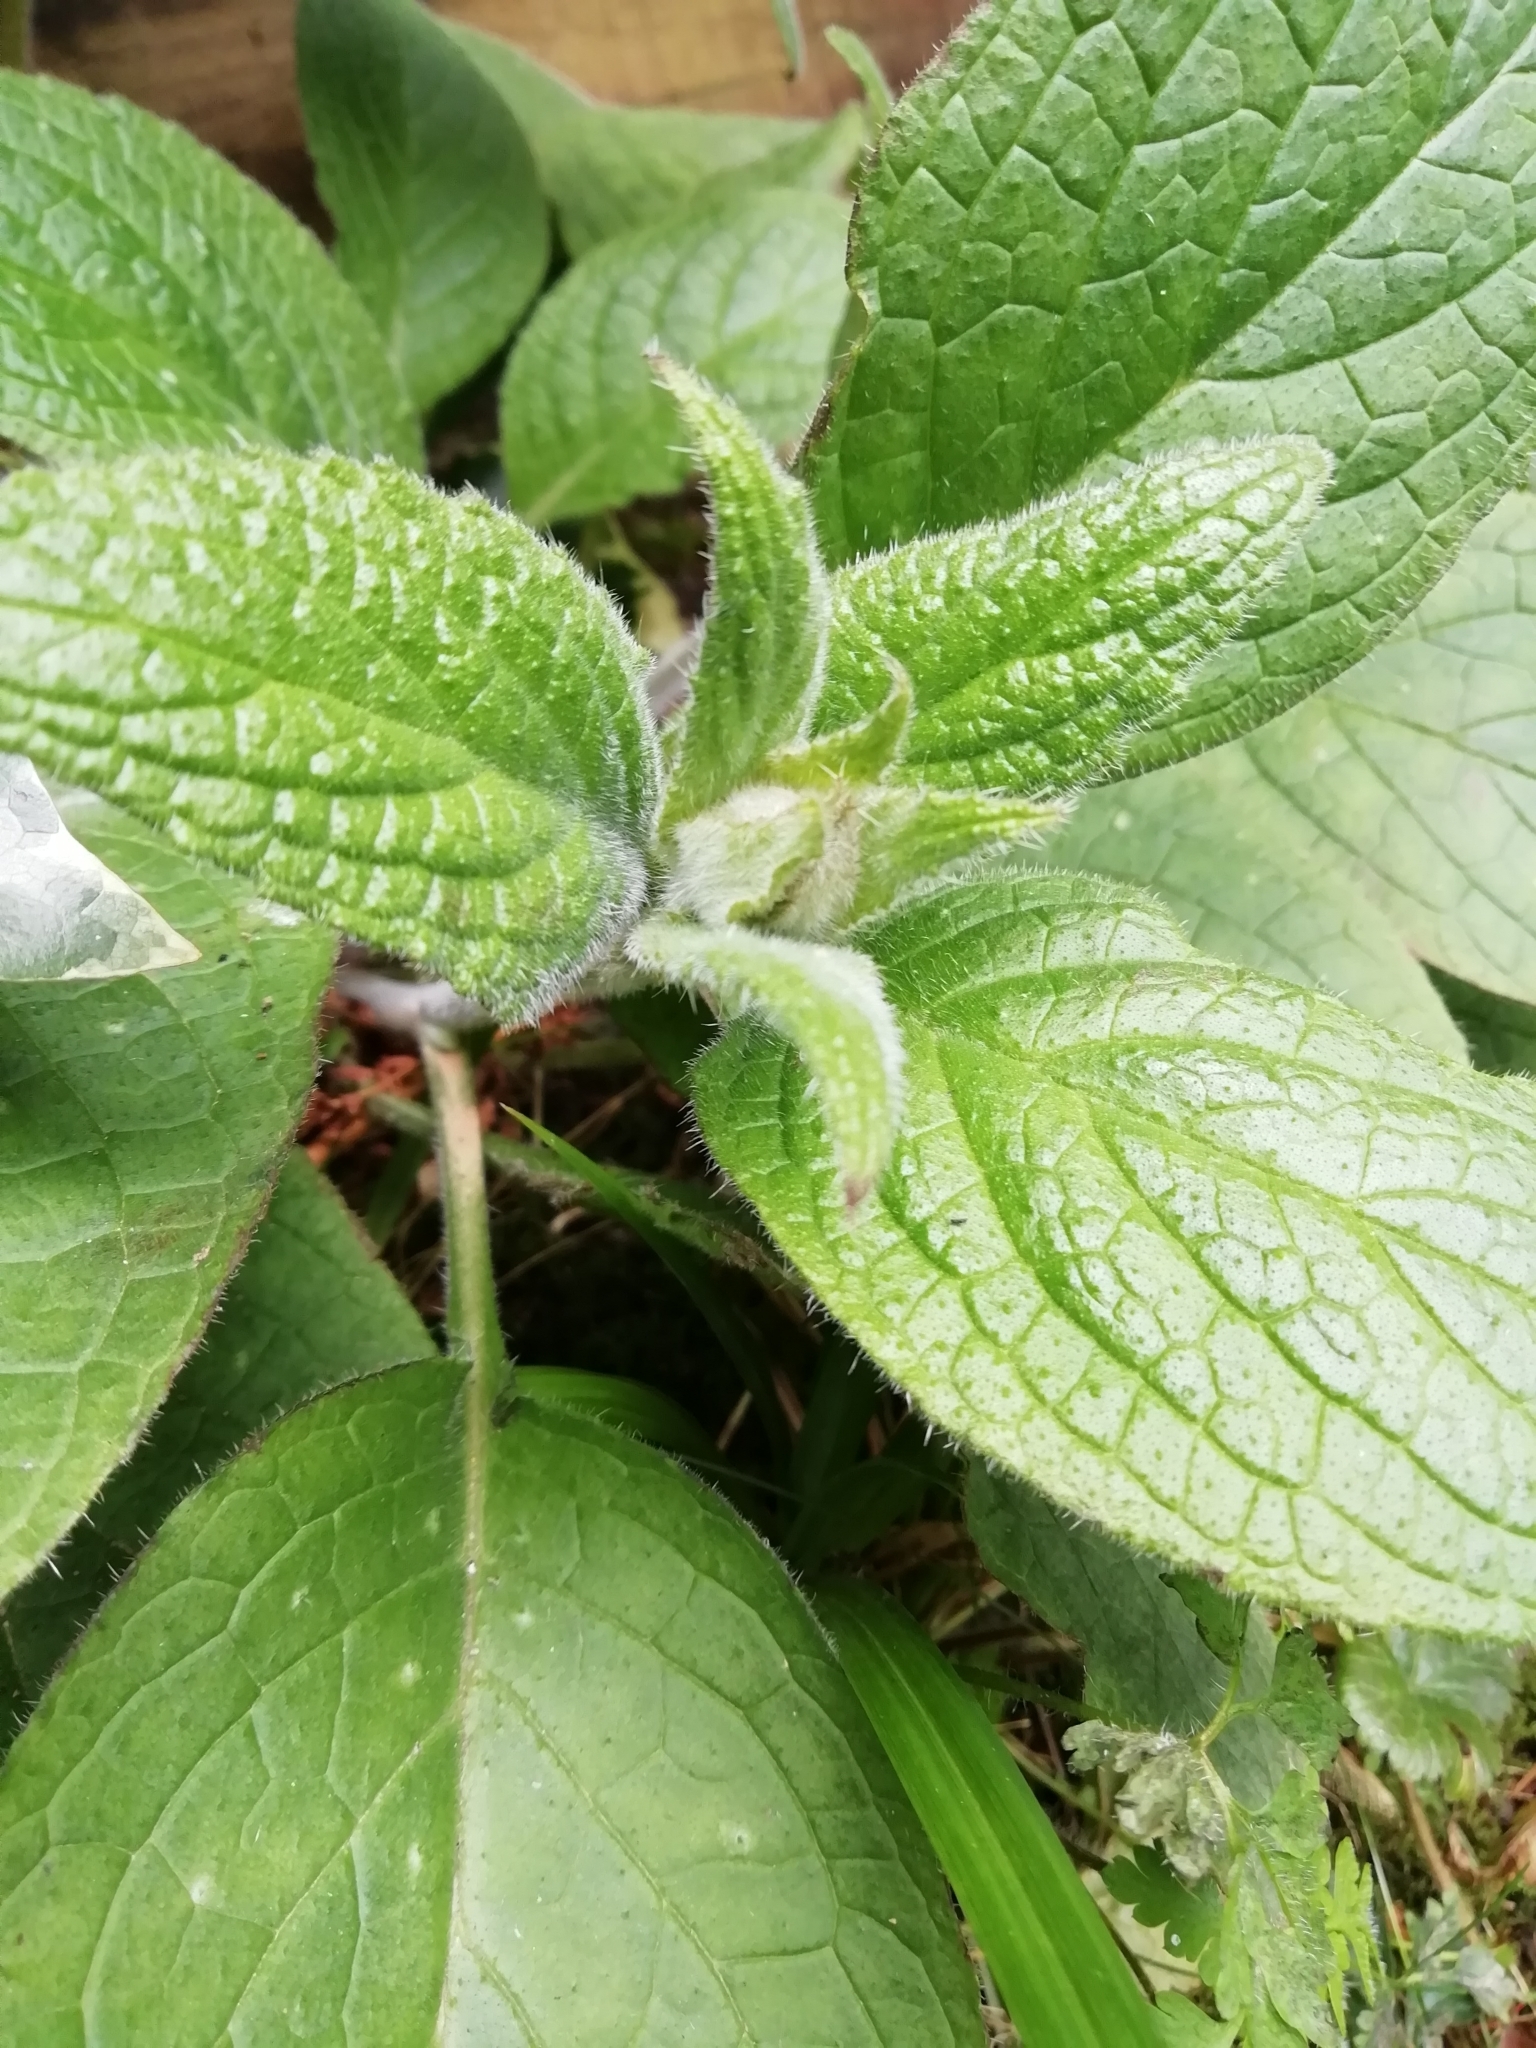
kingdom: Plantae
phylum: Tracheophyta
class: Magnoliopsida
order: Boraginales
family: Boraginaceae
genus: Pentaglottis
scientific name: Pentaglottis sempervirens
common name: Green alkanet
